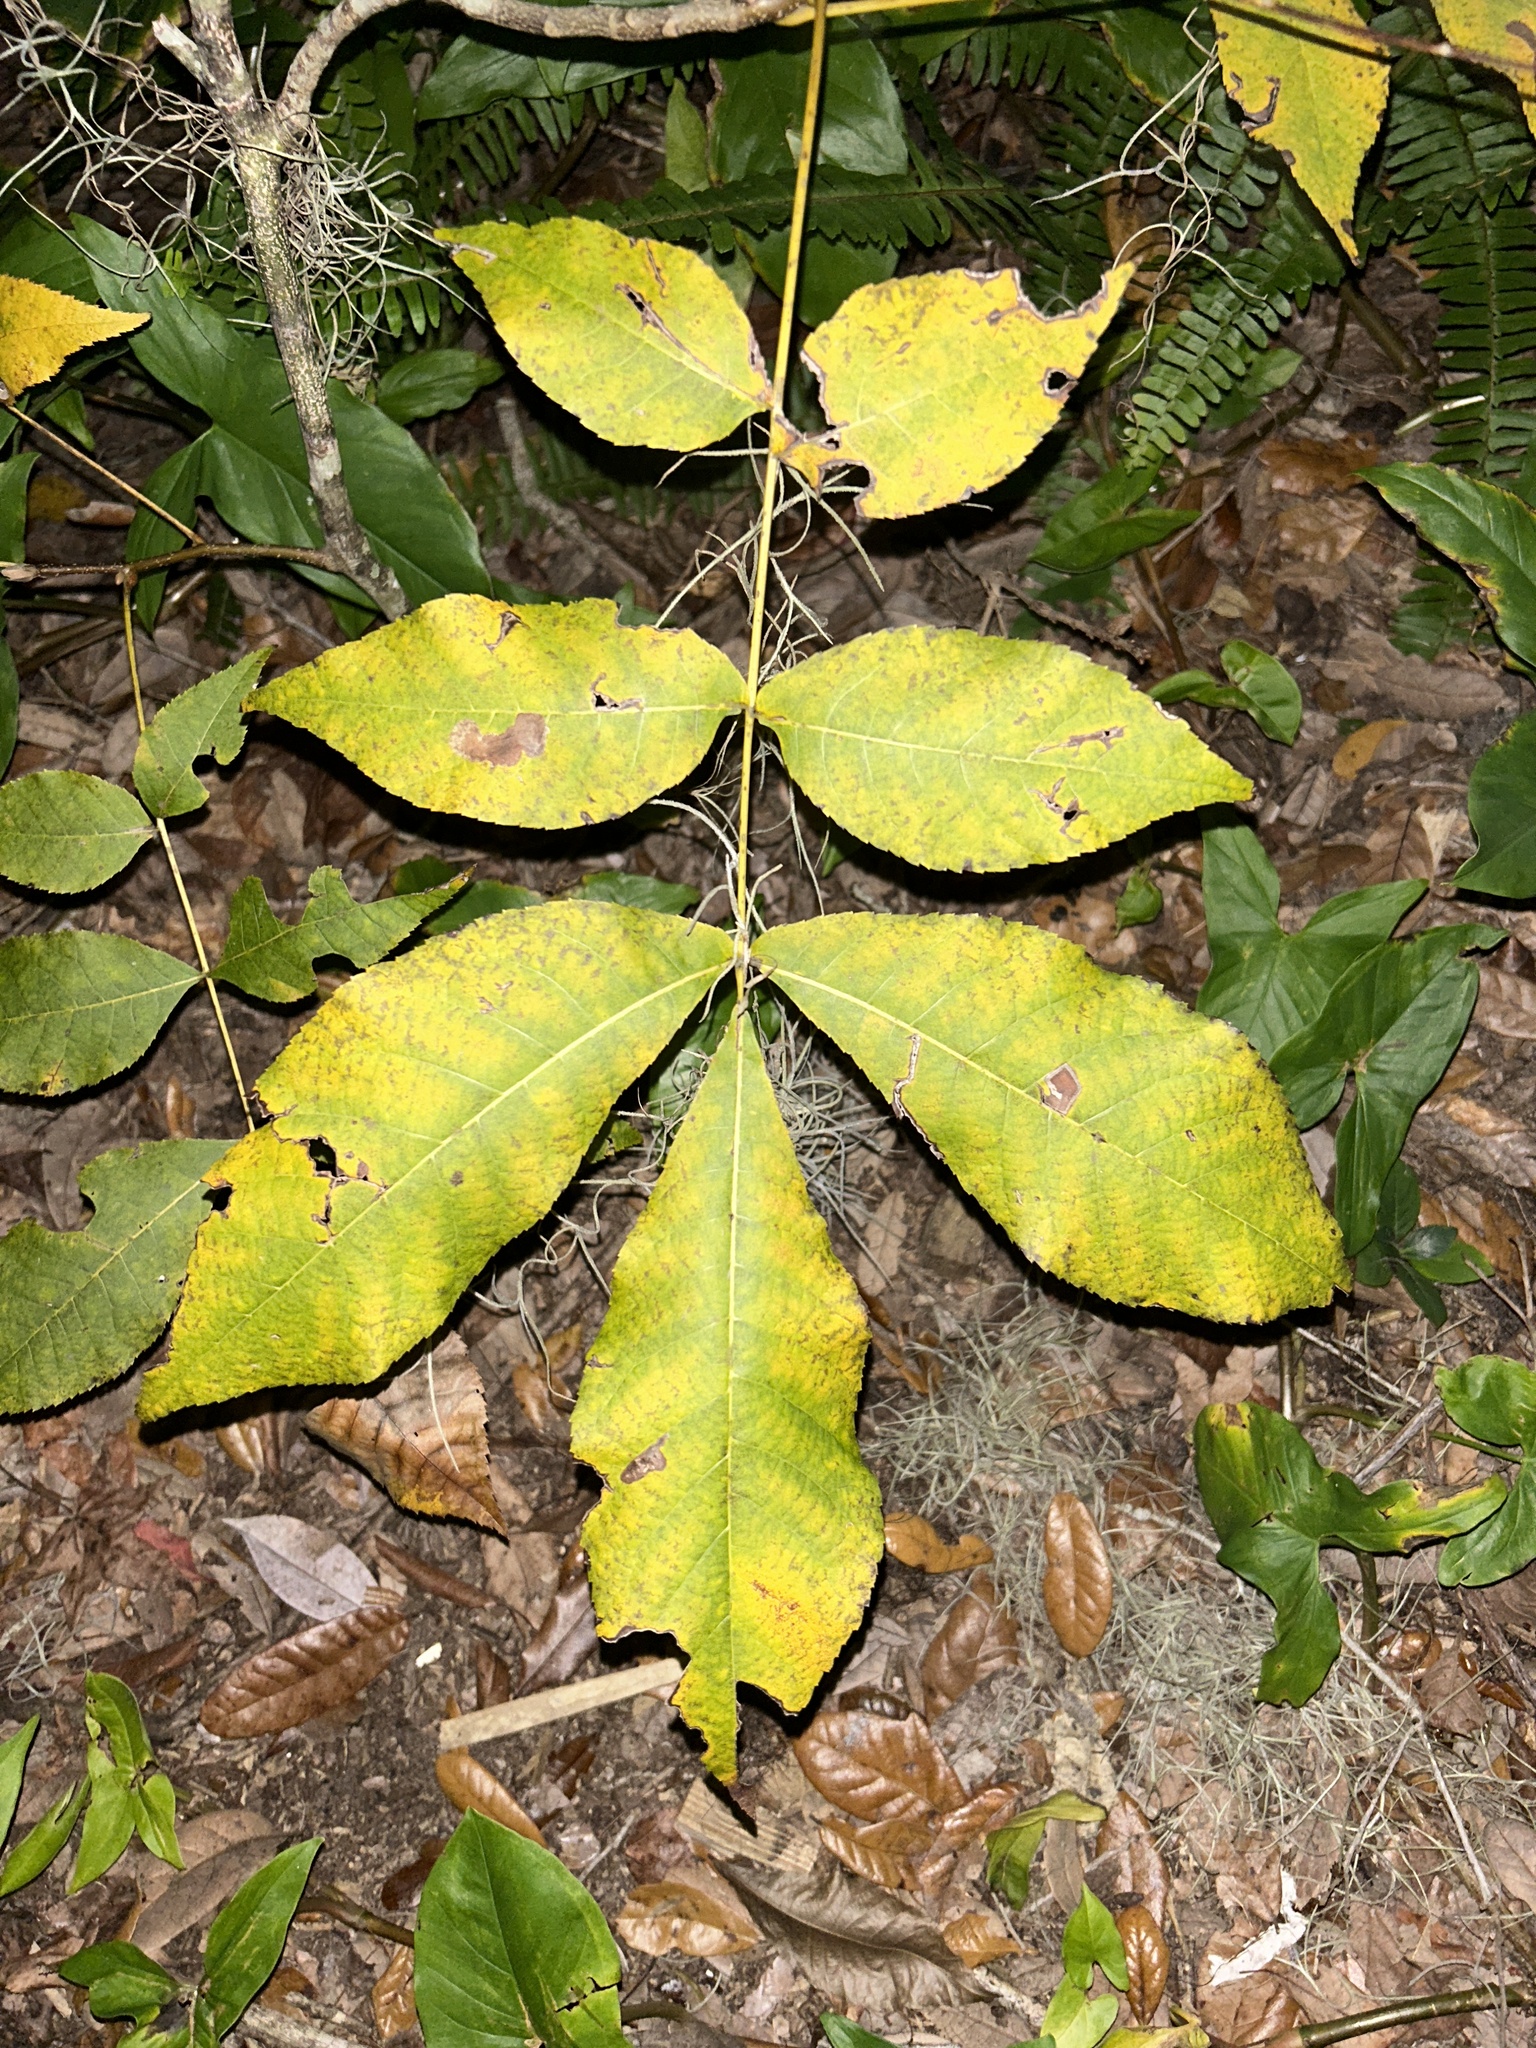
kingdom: Plantae
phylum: Tracheophyta
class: Magnoliopsida
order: Fagales
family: Juglandaceae
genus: Carya
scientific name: Carya glabra
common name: Pignut hickory
